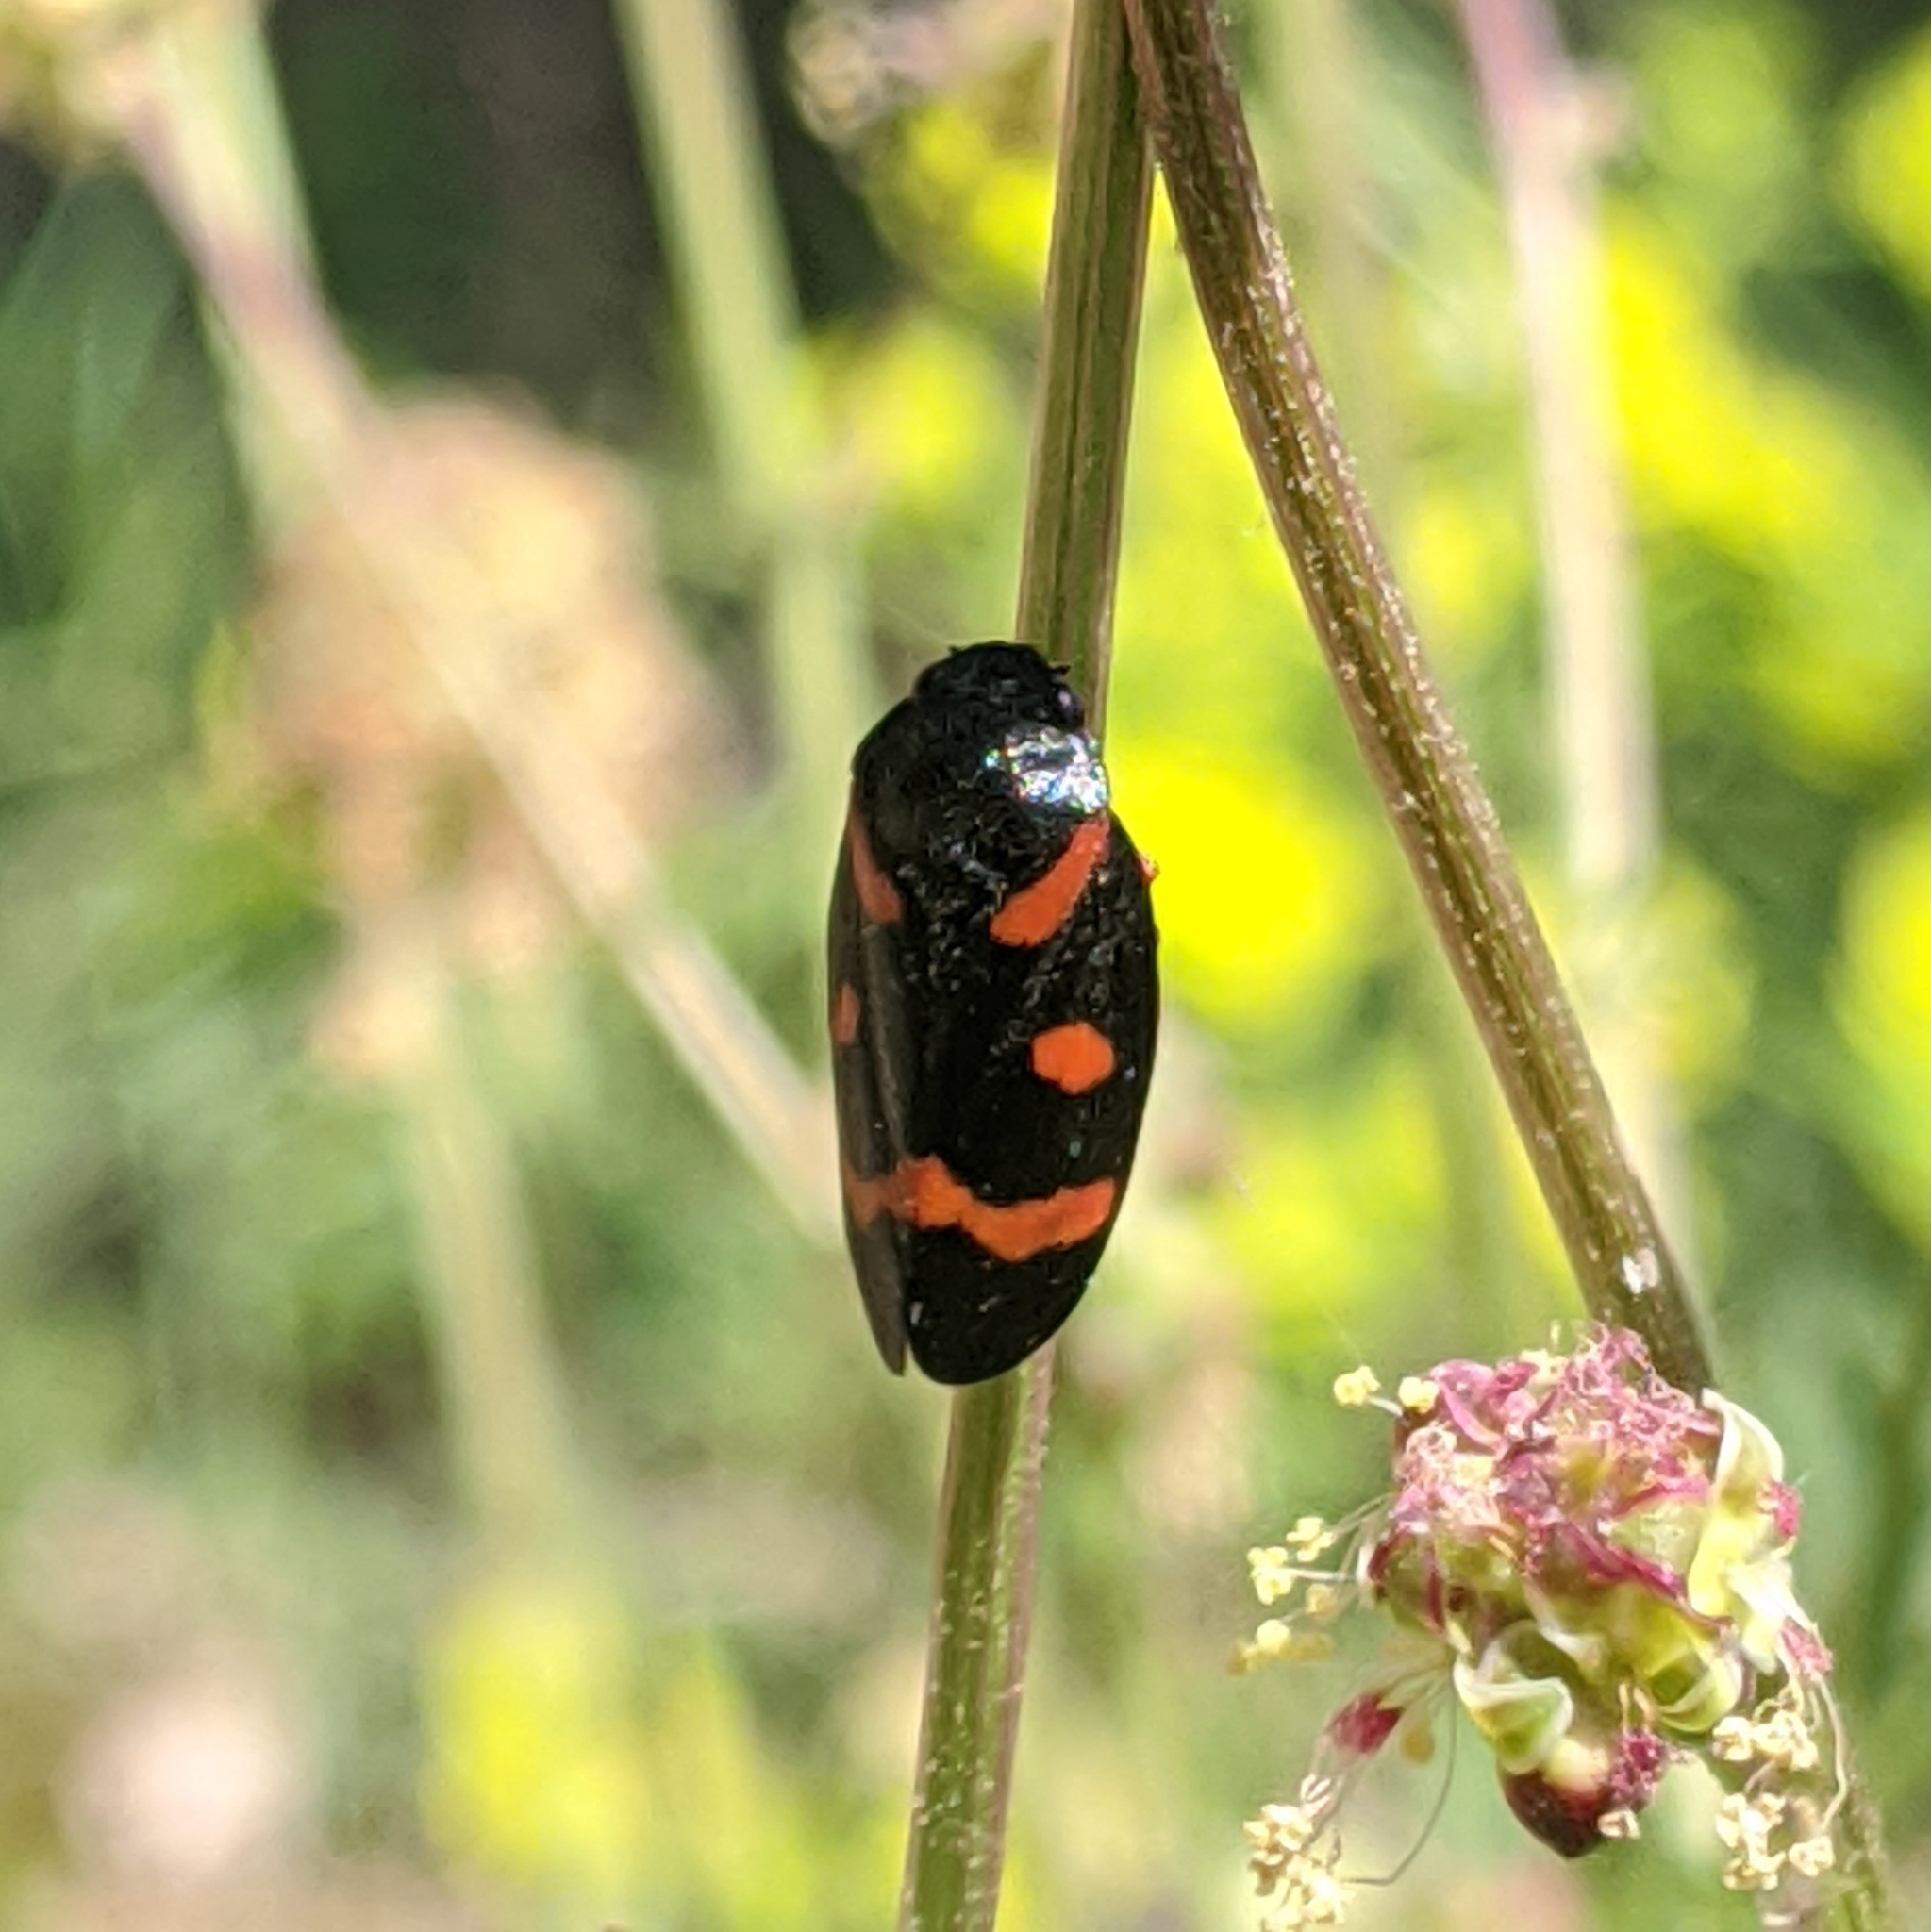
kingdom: Animalia
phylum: Arthropoda
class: Insecta
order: Hemiptera
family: Cercopidae
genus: Cercopis
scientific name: Cercopis intermedia
